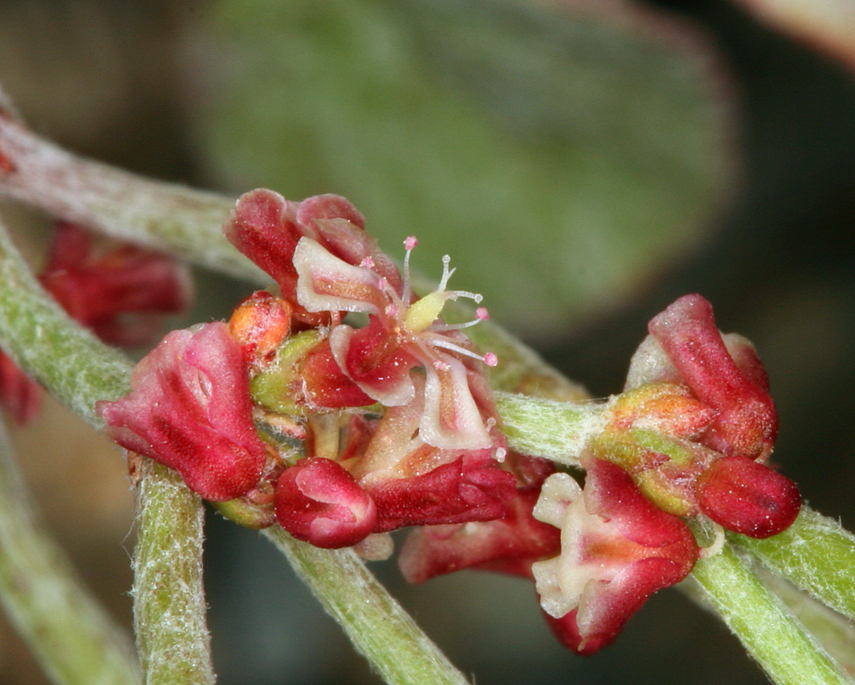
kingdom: Plantae
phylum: Tracheophyta
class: Magnoliopsida
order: Caryophyllales
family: Polygonaceae
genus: Eriogonum
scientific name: Eriogonum nidularium
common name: Bird's-nest wild buckwheat
